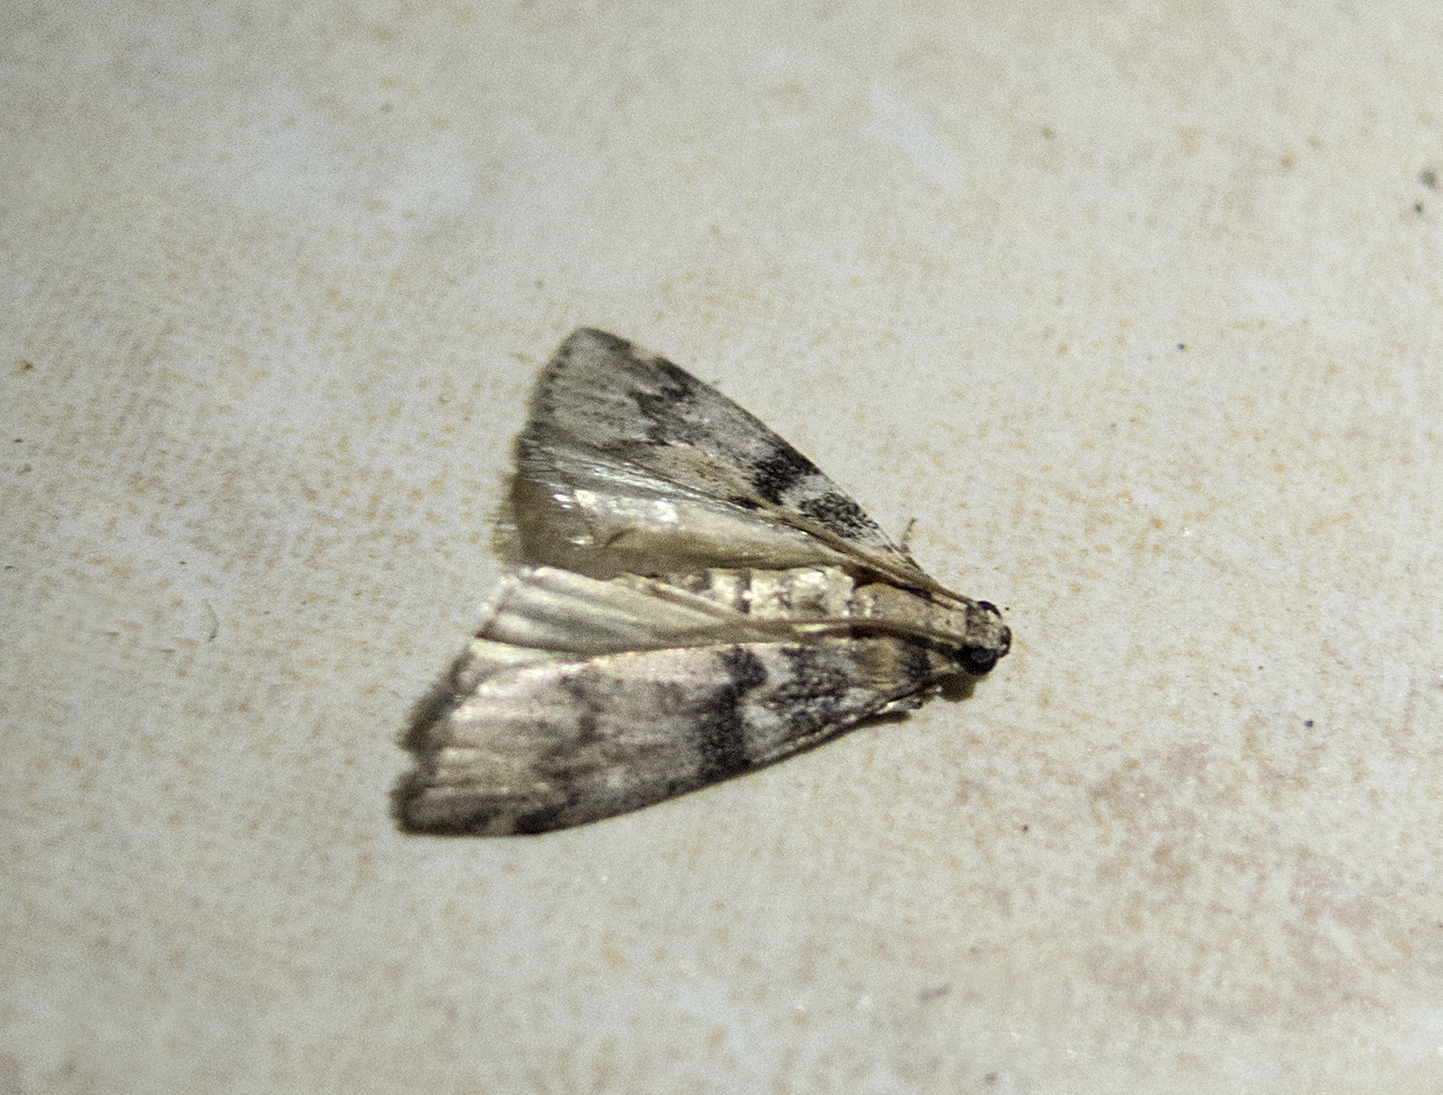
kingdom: Animalia
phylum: Arthropoda
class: Insecta
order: Lepidoptera
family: Pyralidae
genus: Euzophera
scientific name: Euzophera pinguis
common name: Ash-bark knot-horn
